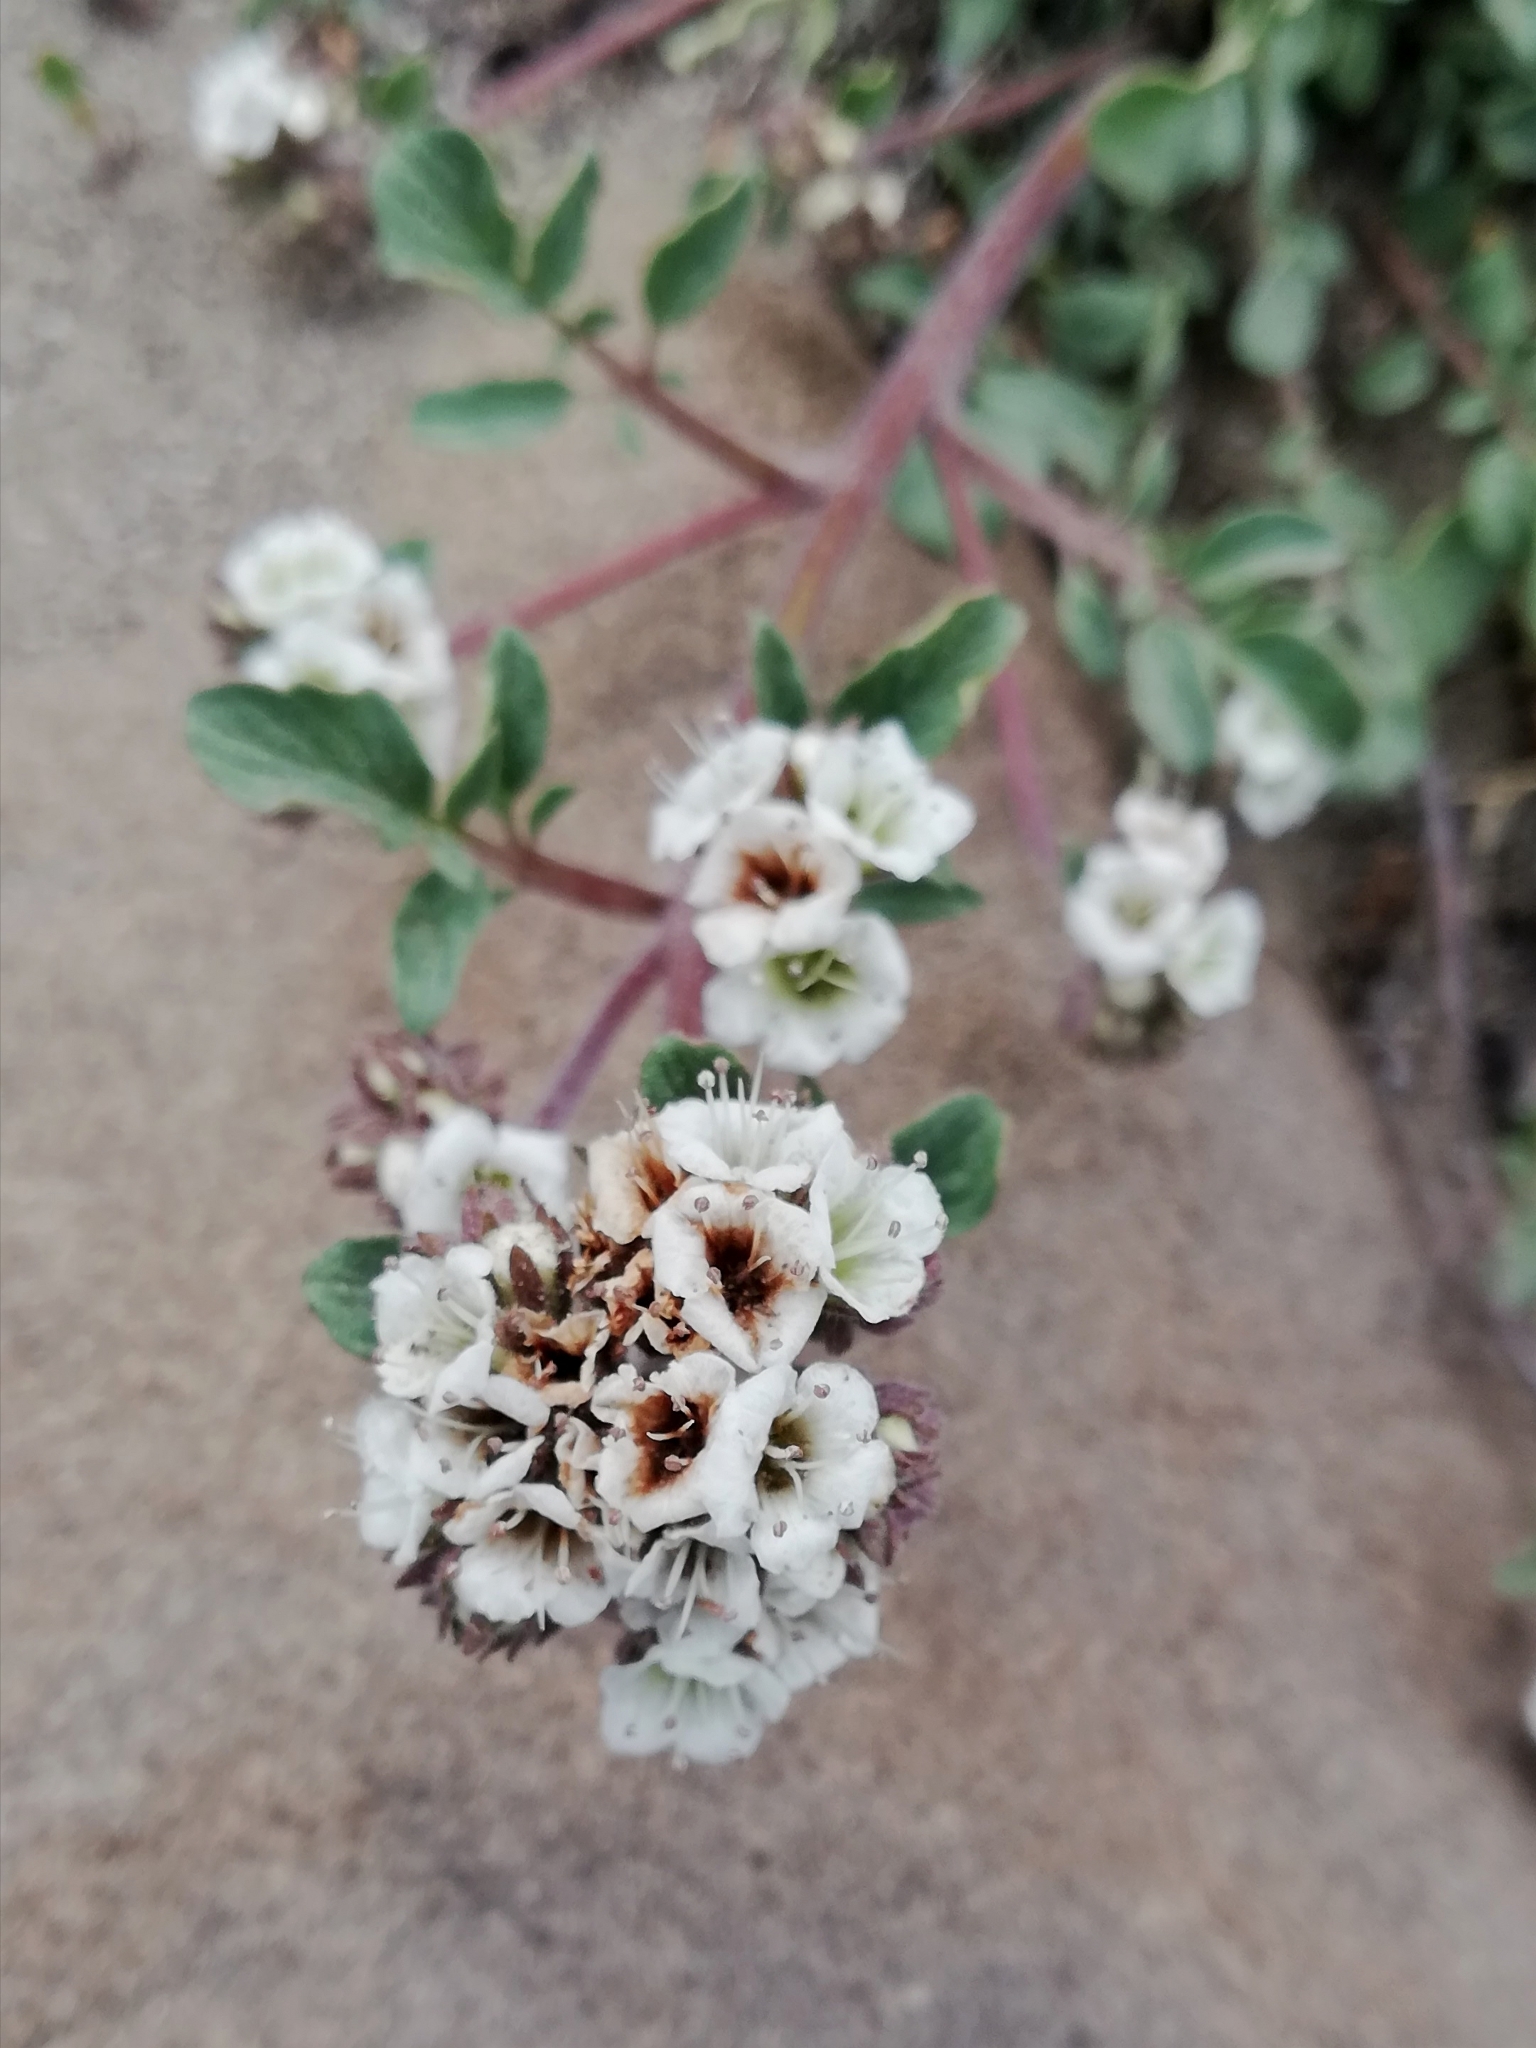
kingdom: Plantae
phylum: Tracheophyta
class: Magnoliopsida
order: Boraginales
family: Hydrophyllaceae
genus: Phacelia
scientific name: Phacelia secunda
